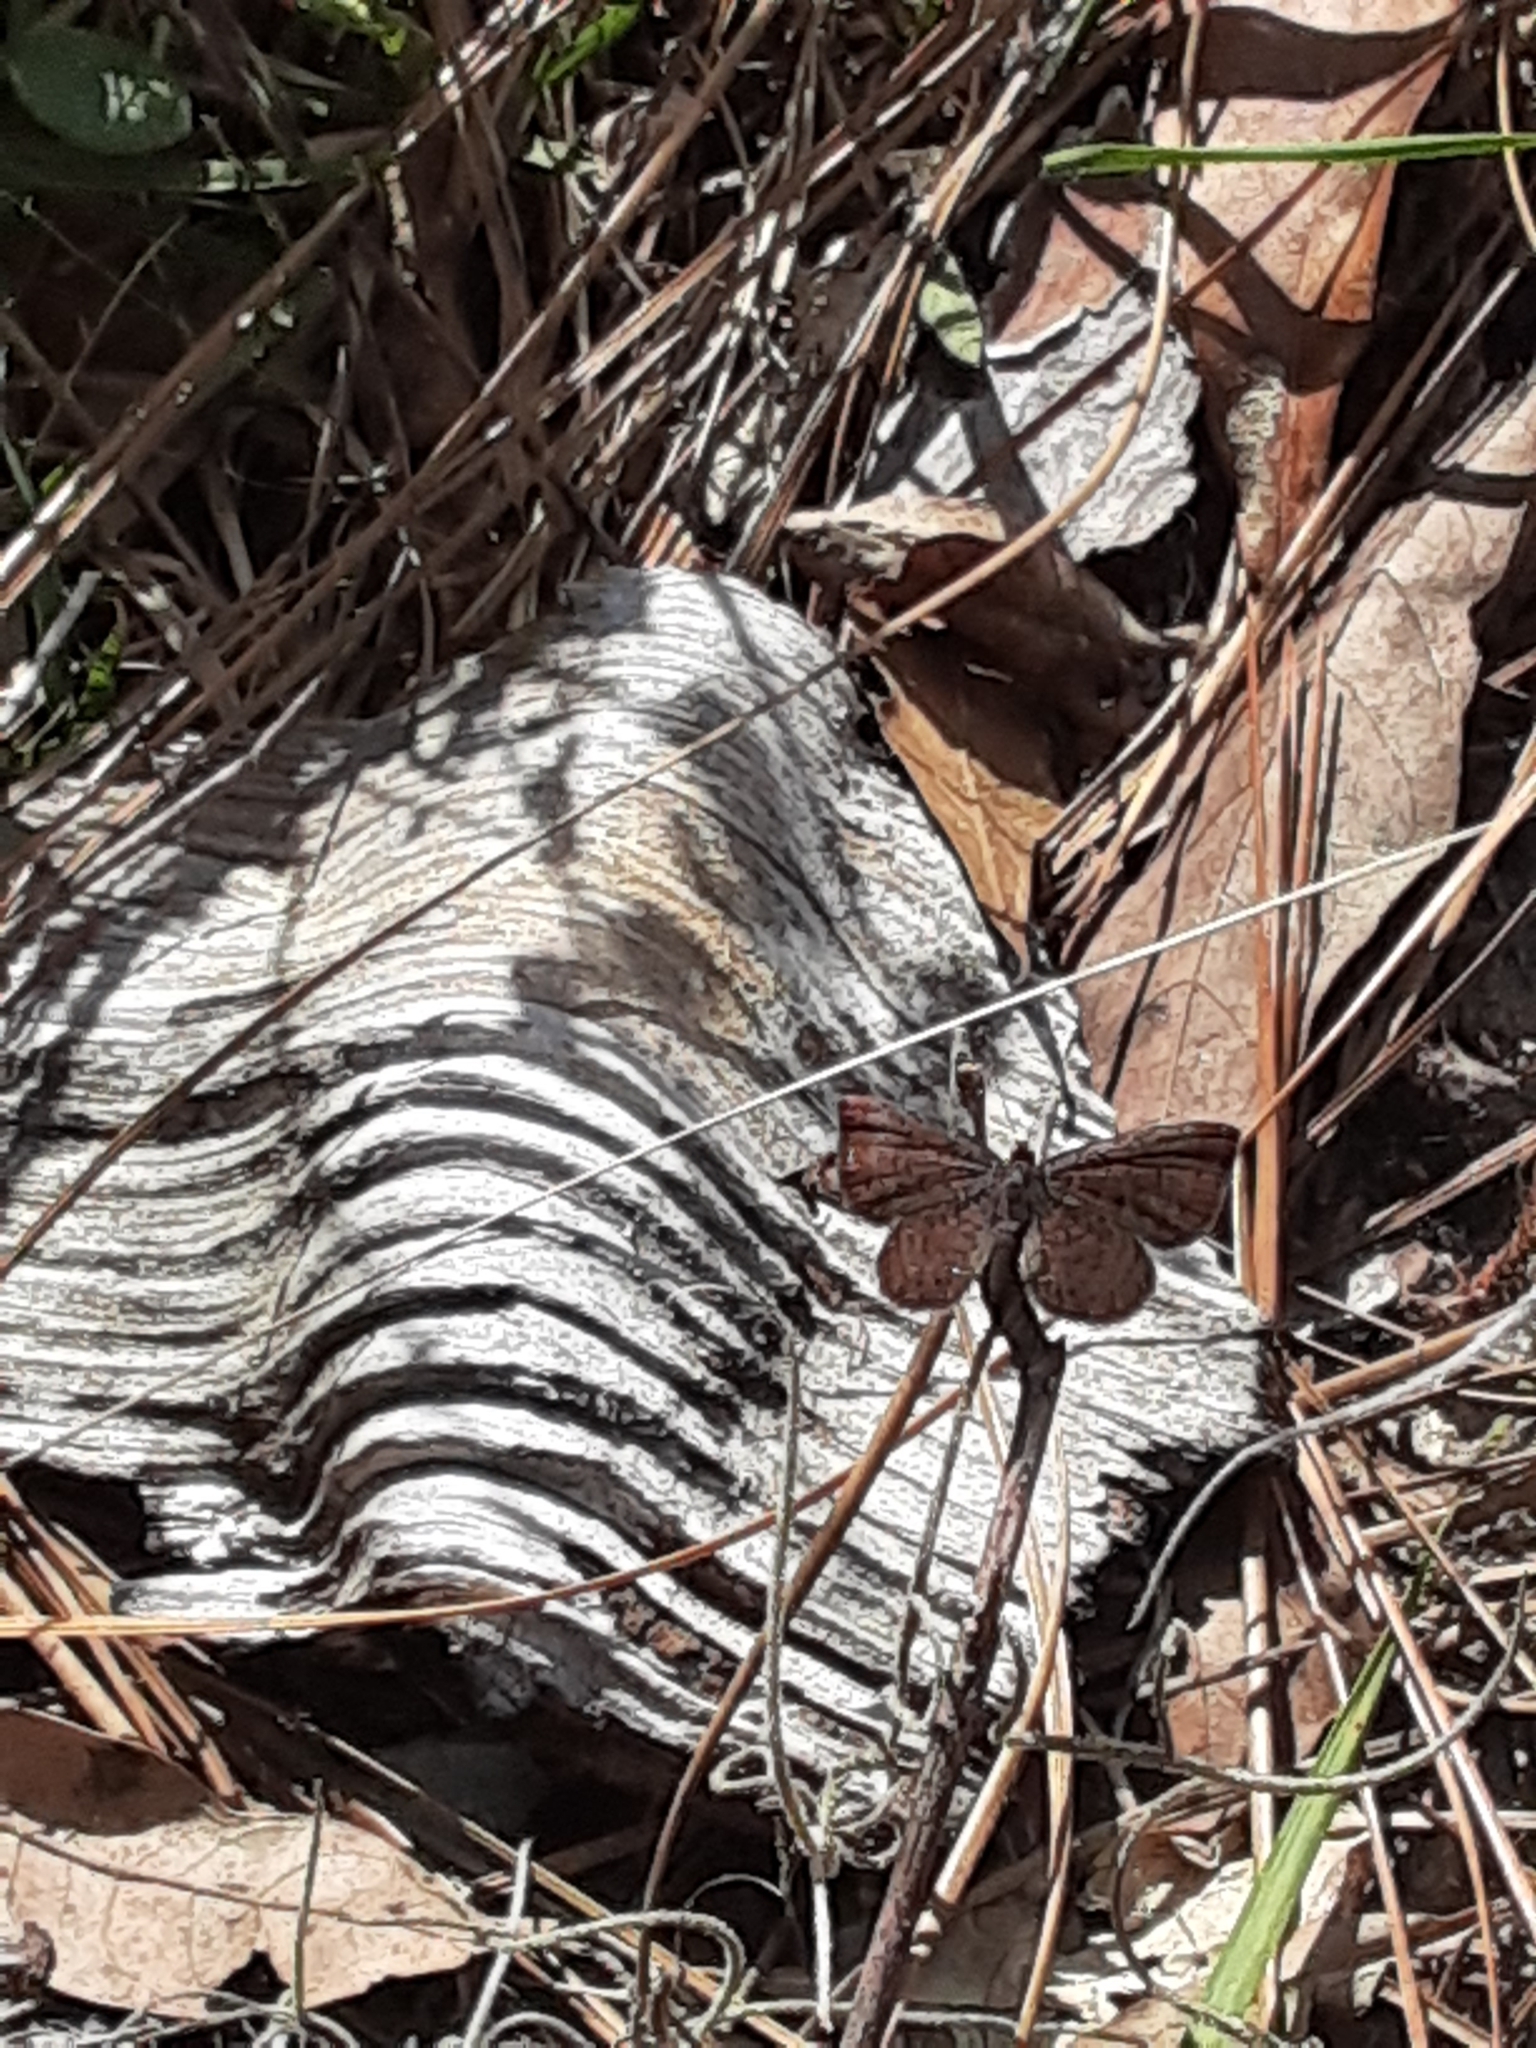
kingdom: Animalia
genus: Calephelis
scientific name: Calephelis virginiensis
